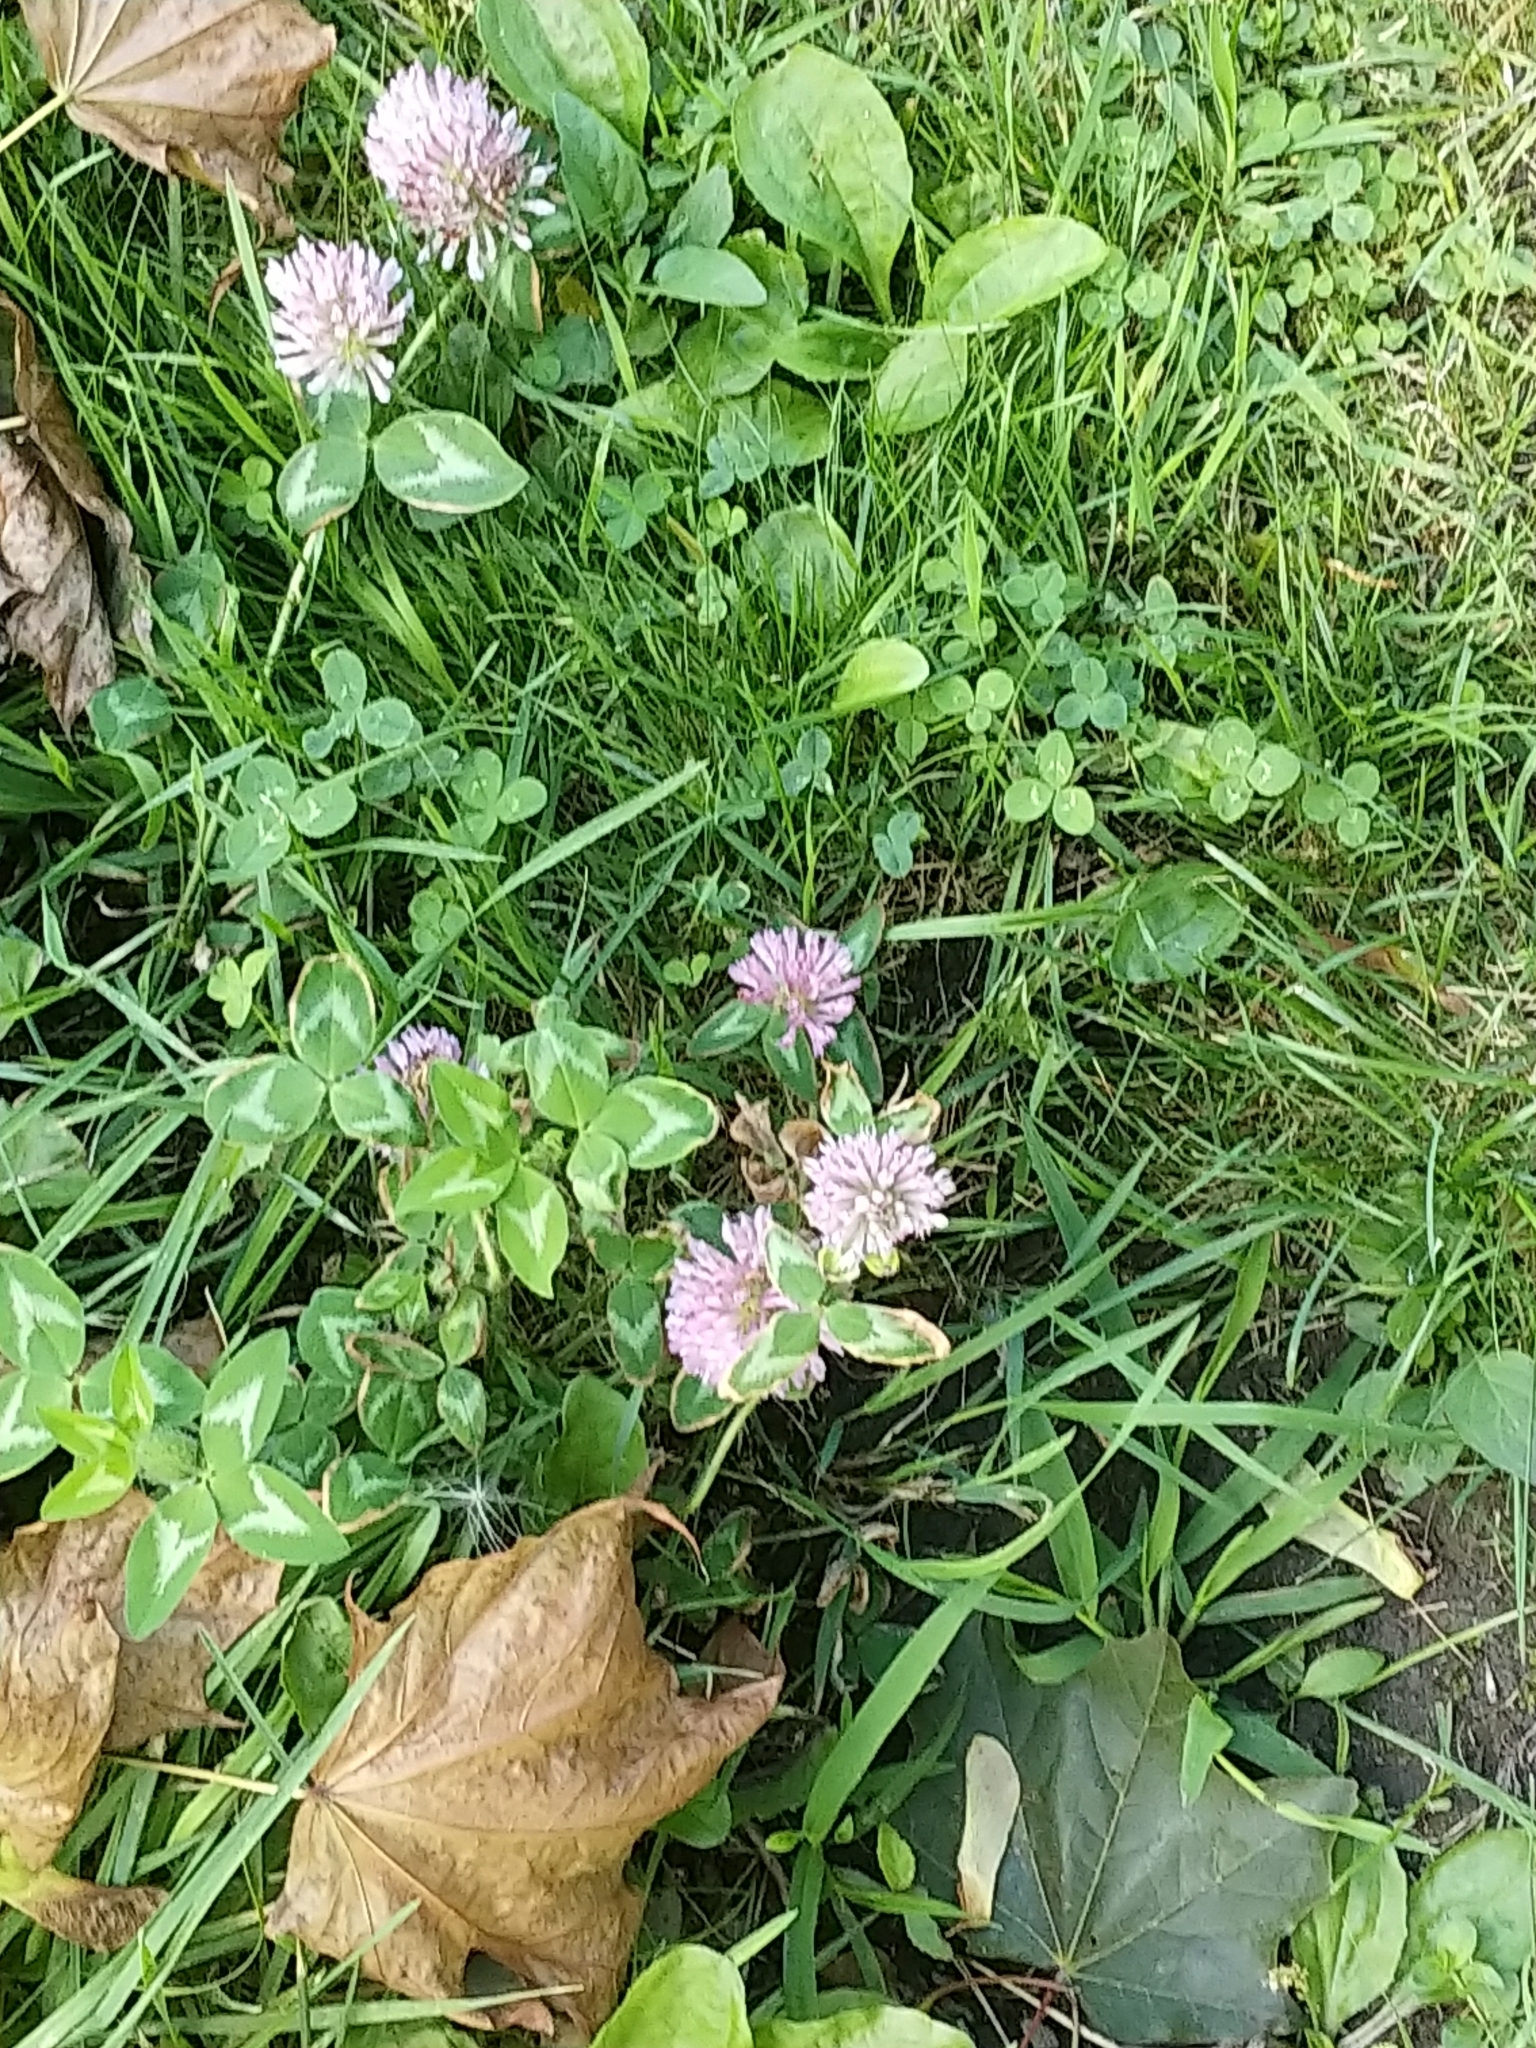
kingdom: Plantae
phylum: Tracheophyta
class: Magnoliopsida
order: Fabales
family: Fabaceae
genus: Trifolium
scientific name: Trifolium pratense
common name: Red clover
